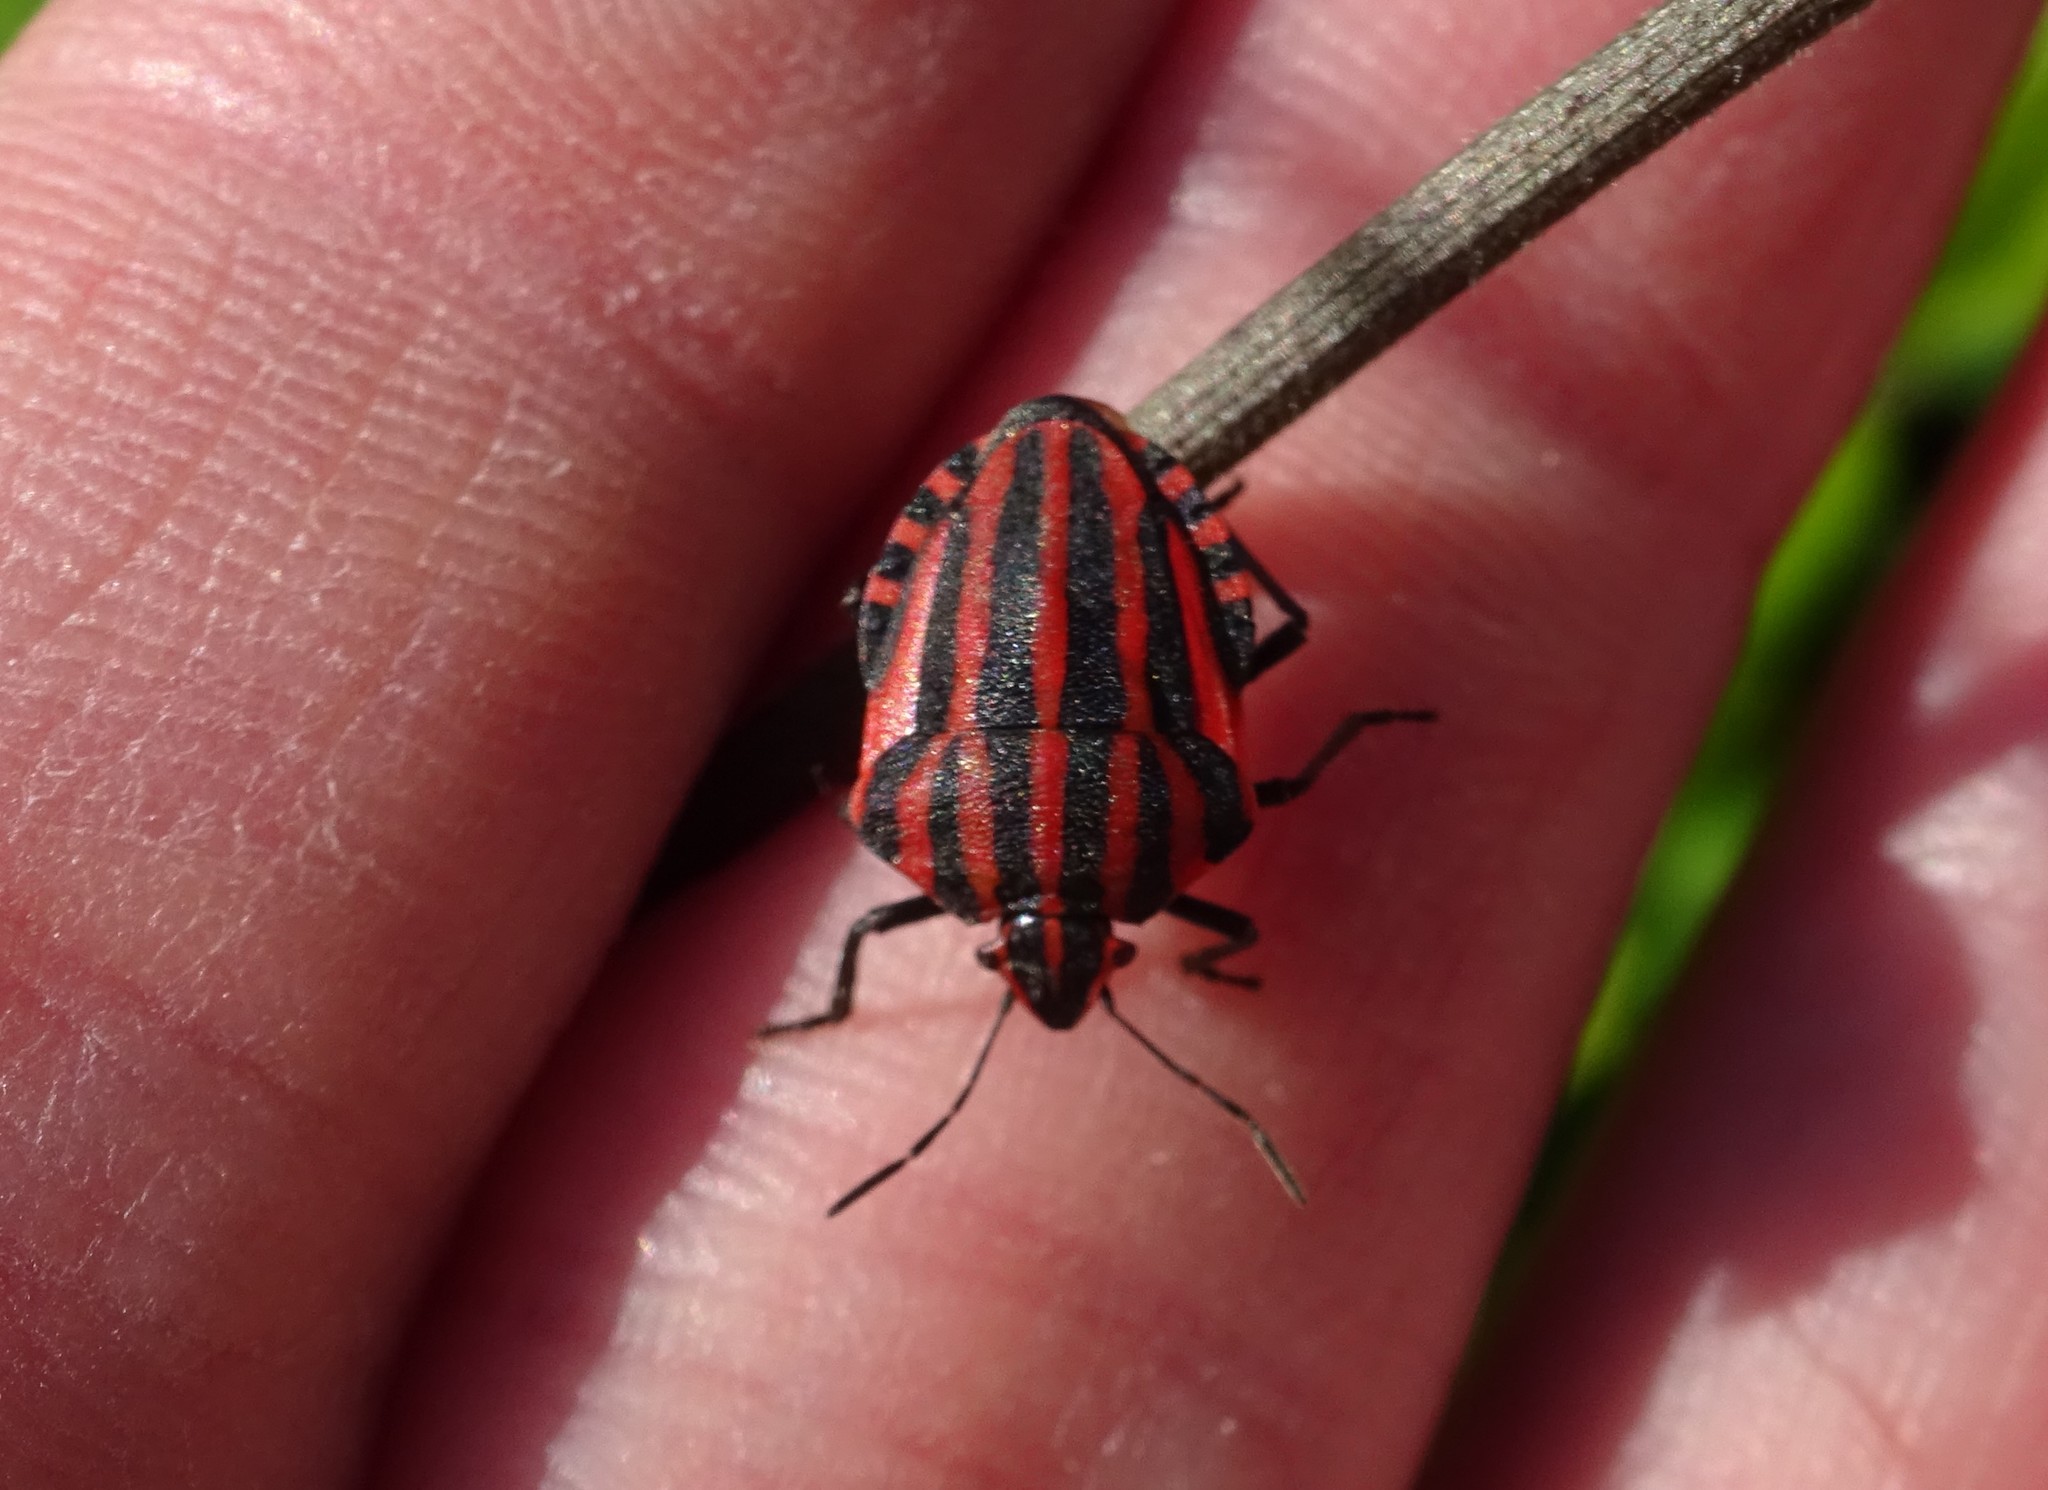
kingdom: Animalia
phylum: Arthropoda
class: Insecta
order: Hemiptera
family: Pentatomidae
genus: Graphosoma
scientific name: Graphosoma italicum
